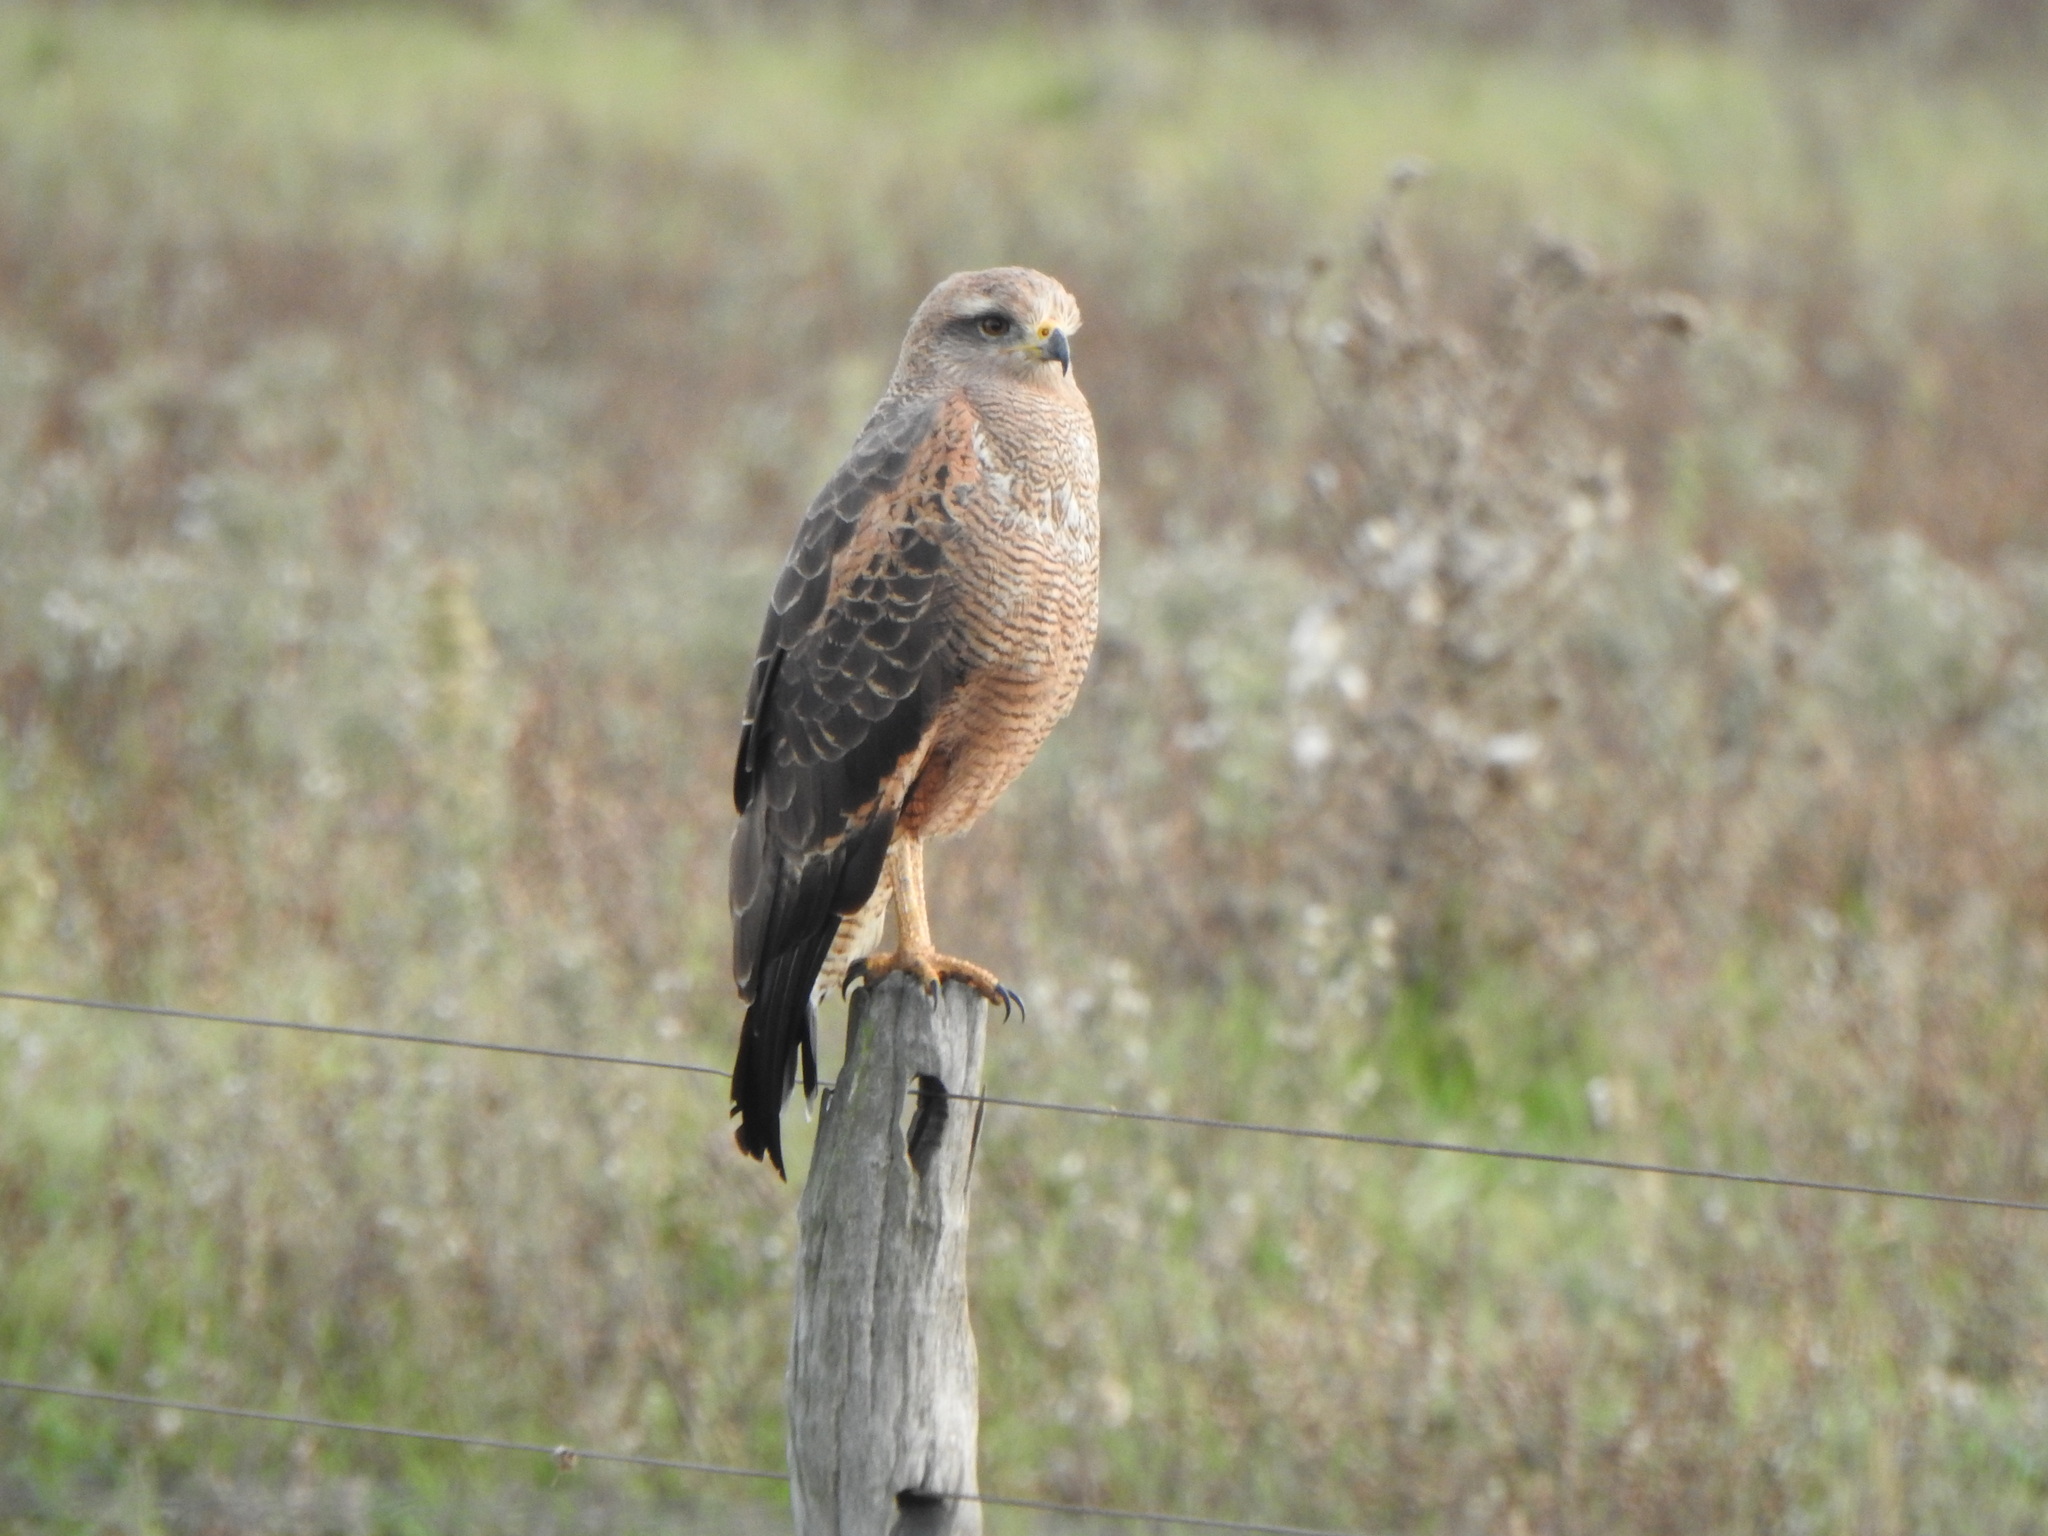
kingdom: Animalia
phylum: Chordata
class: Aves
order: Accipitriformes
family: Accipitridae
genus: Buteogallus
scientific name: Buteogallus meridionalis
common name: Savanna hawk
